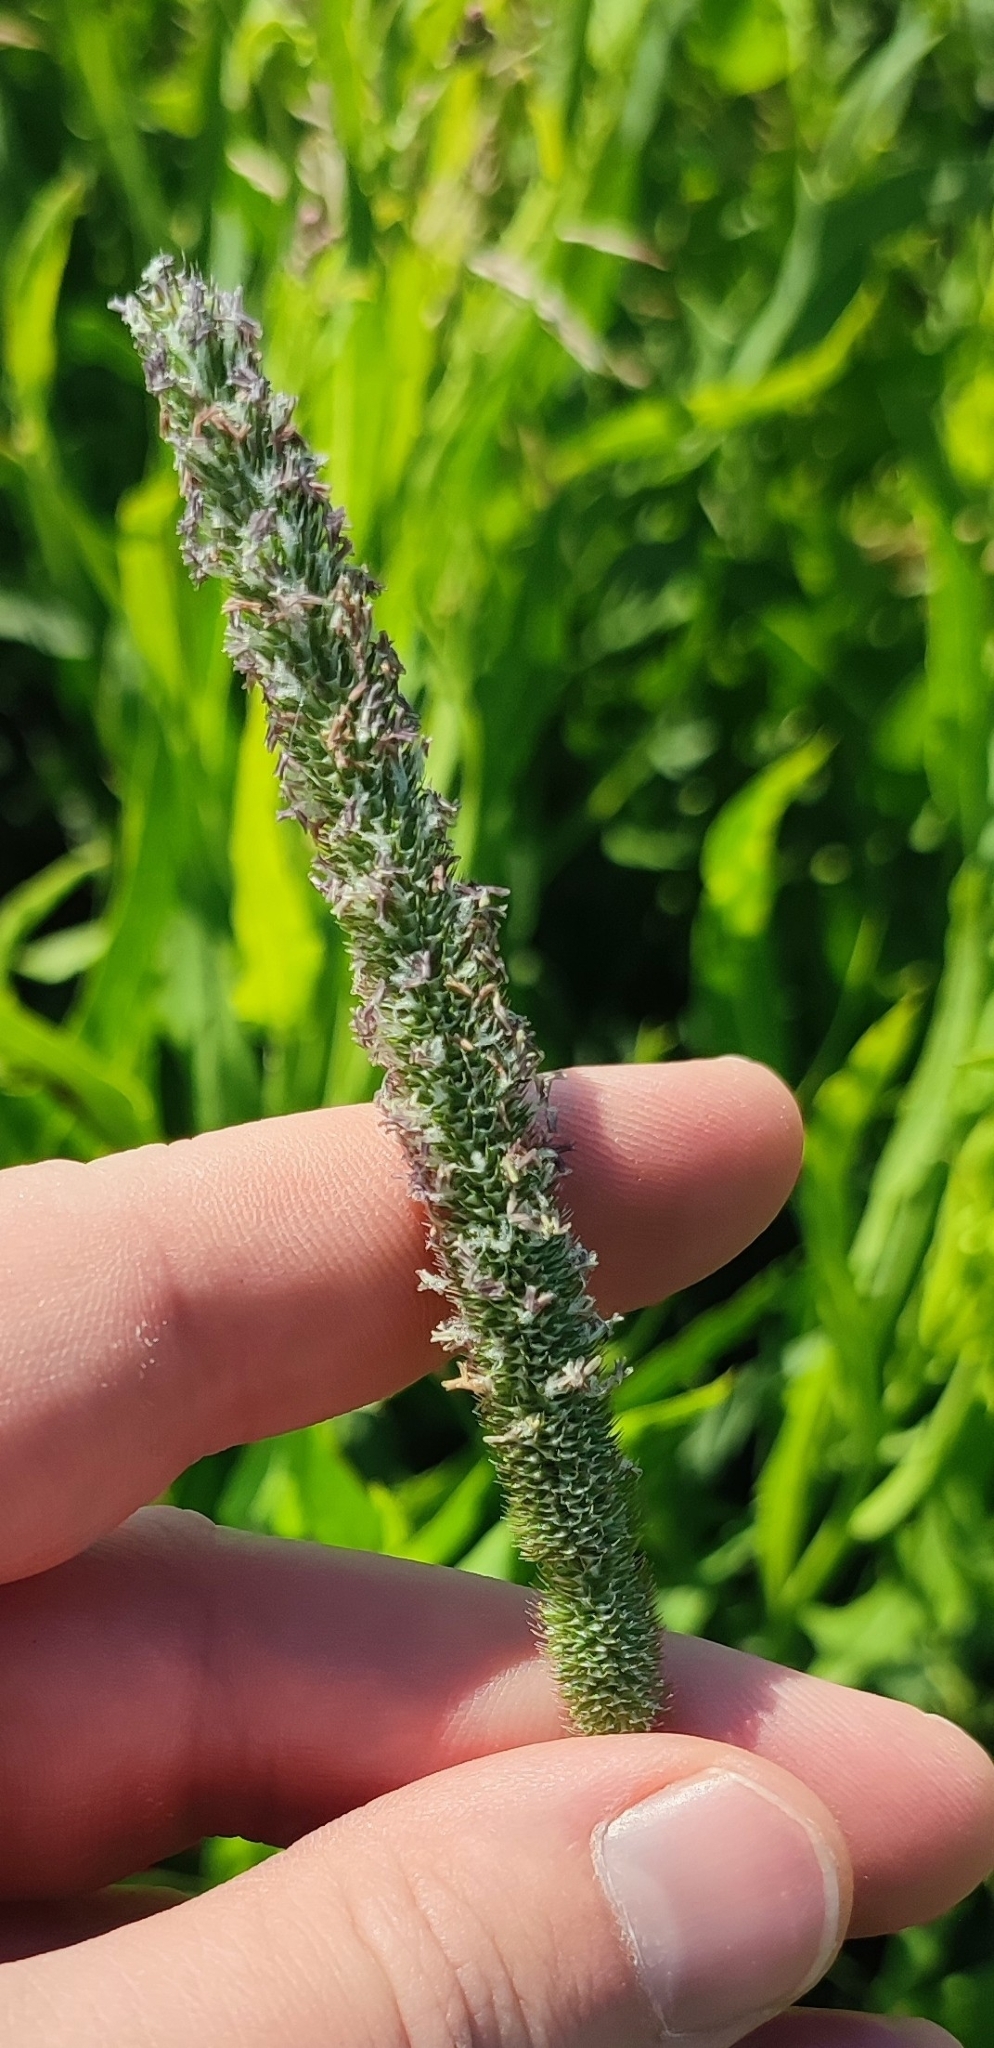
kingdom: Plantae
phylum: Tracheophyta
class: Liliopsida
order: Poales
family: Poaceae
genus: Phleum
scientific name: Phleum pratense
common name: Timothy grass
